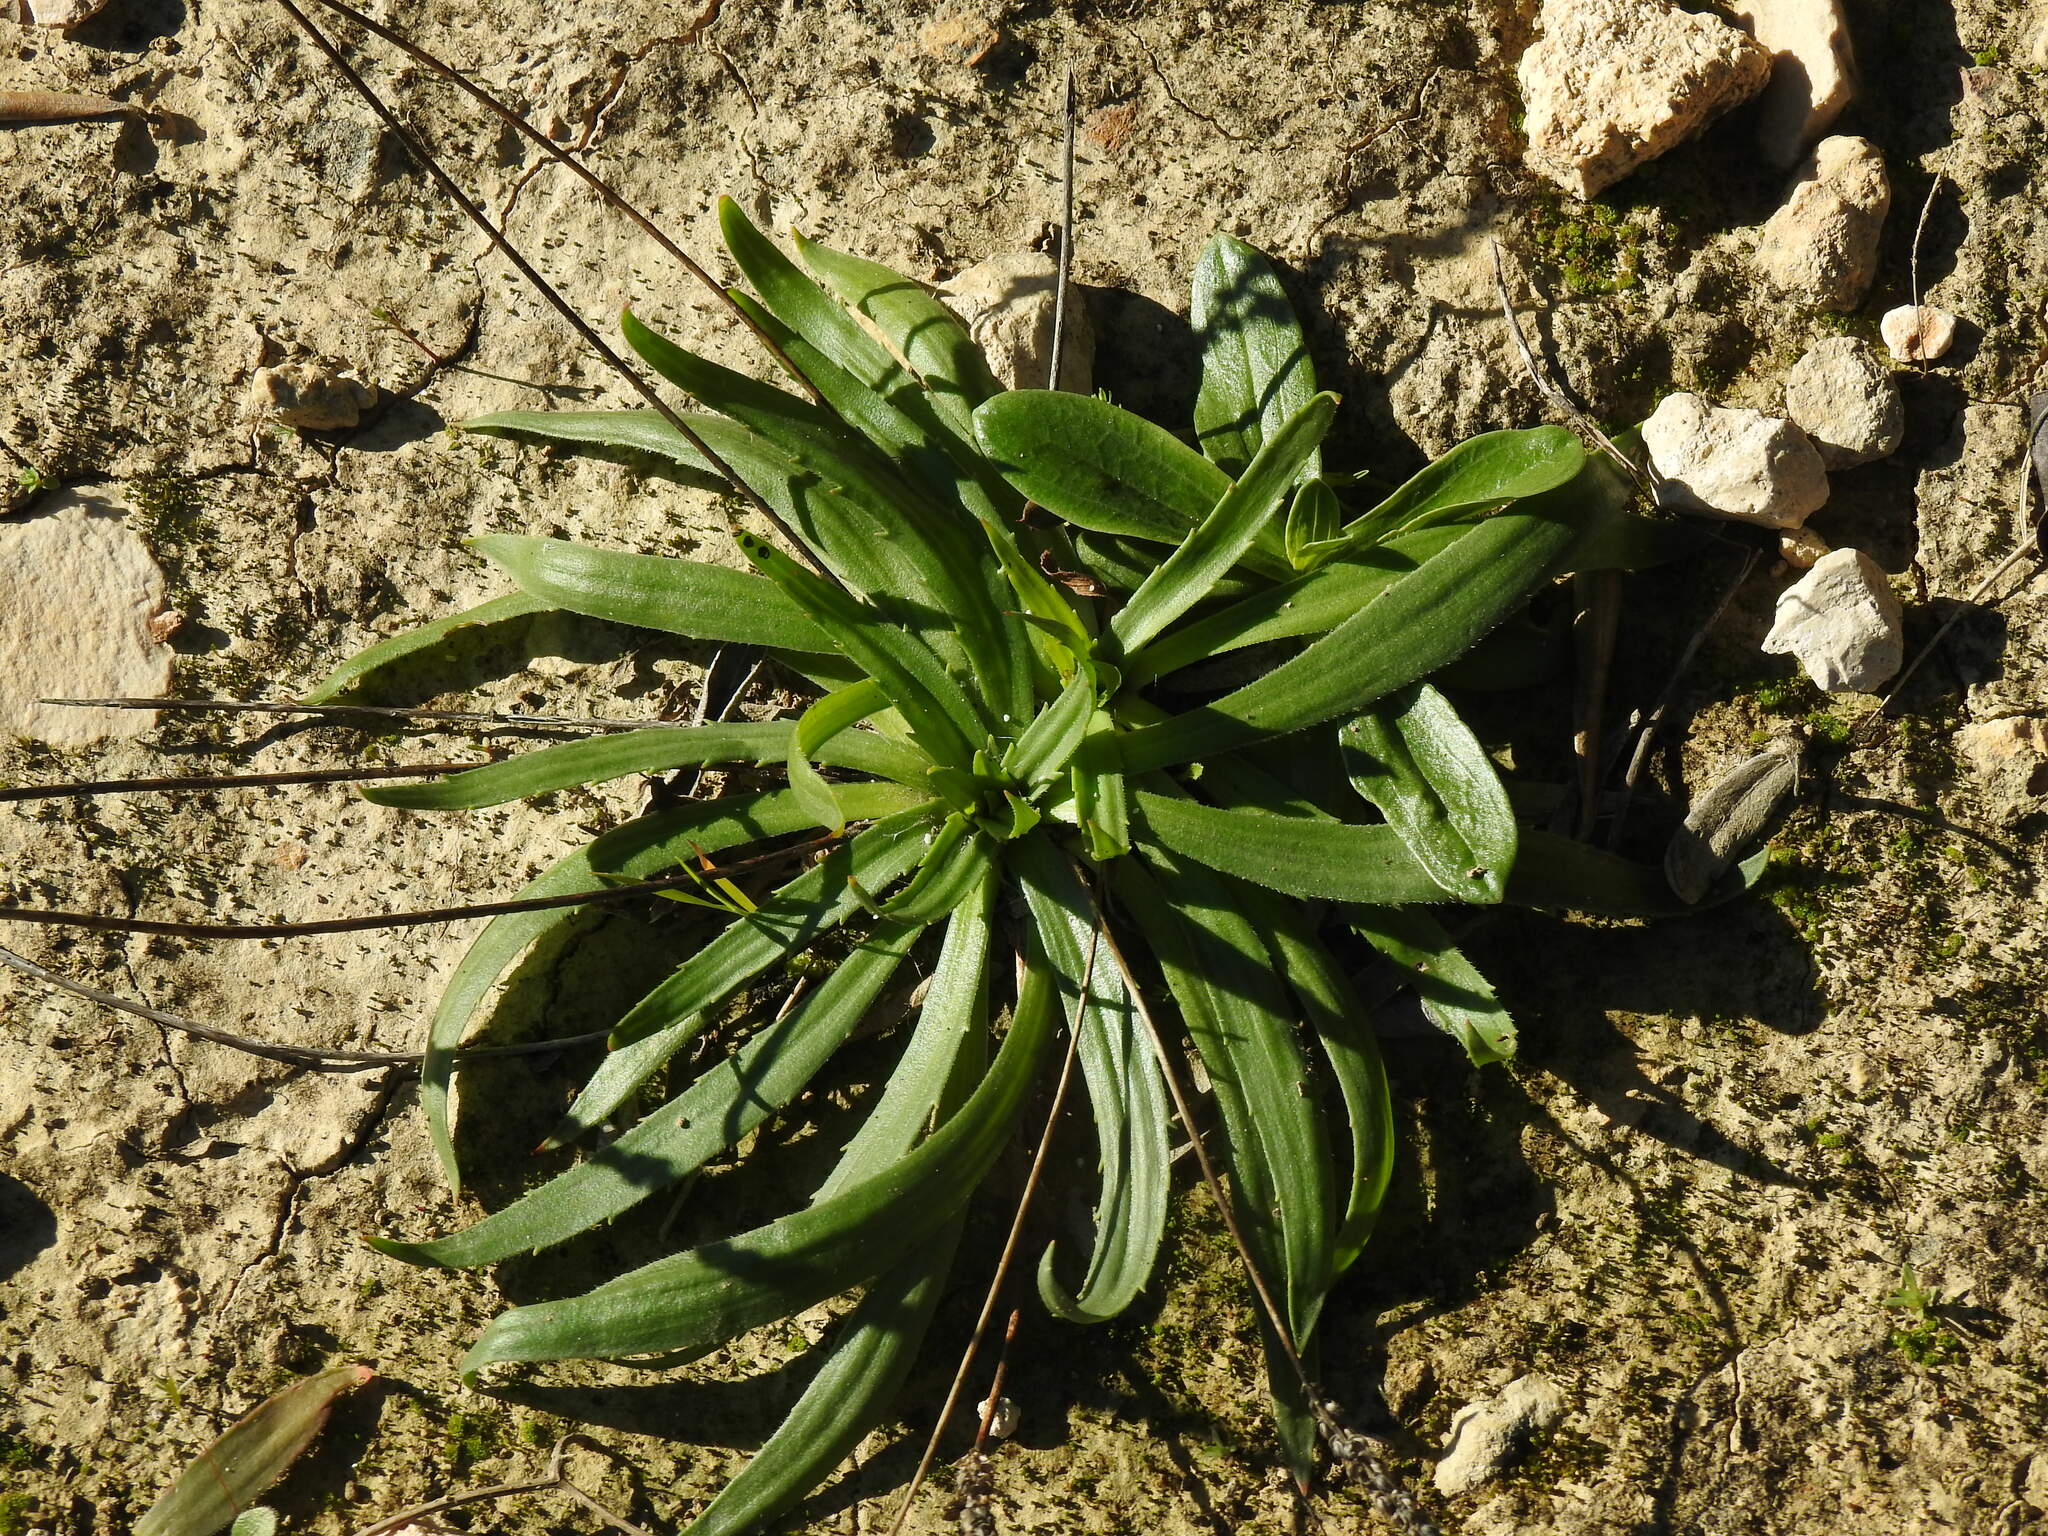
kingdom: Plantae
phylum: Tracheophyta
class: Magnoliopsida
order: Lamiales
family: Plantaginaceae
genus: Plantago
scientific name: Plantago serraria
